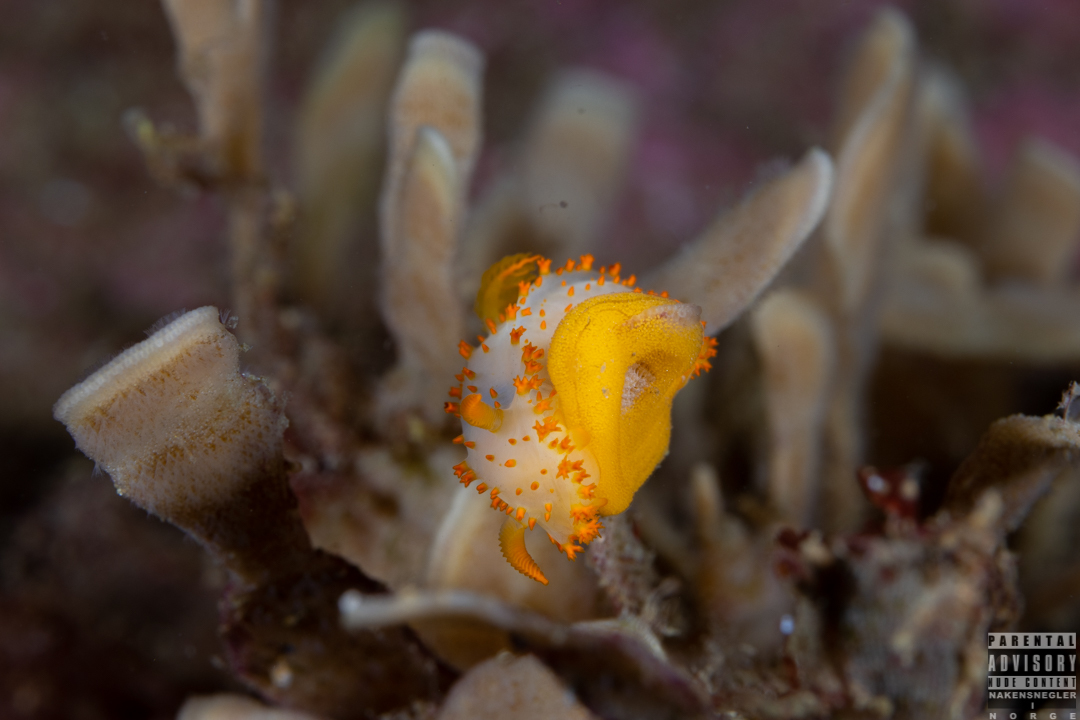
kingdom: Animalia
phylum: Mollusca
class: Gastropoda
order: Nudibranchia
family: Polyceridae
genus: Crimora
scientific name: Crimora papillata
